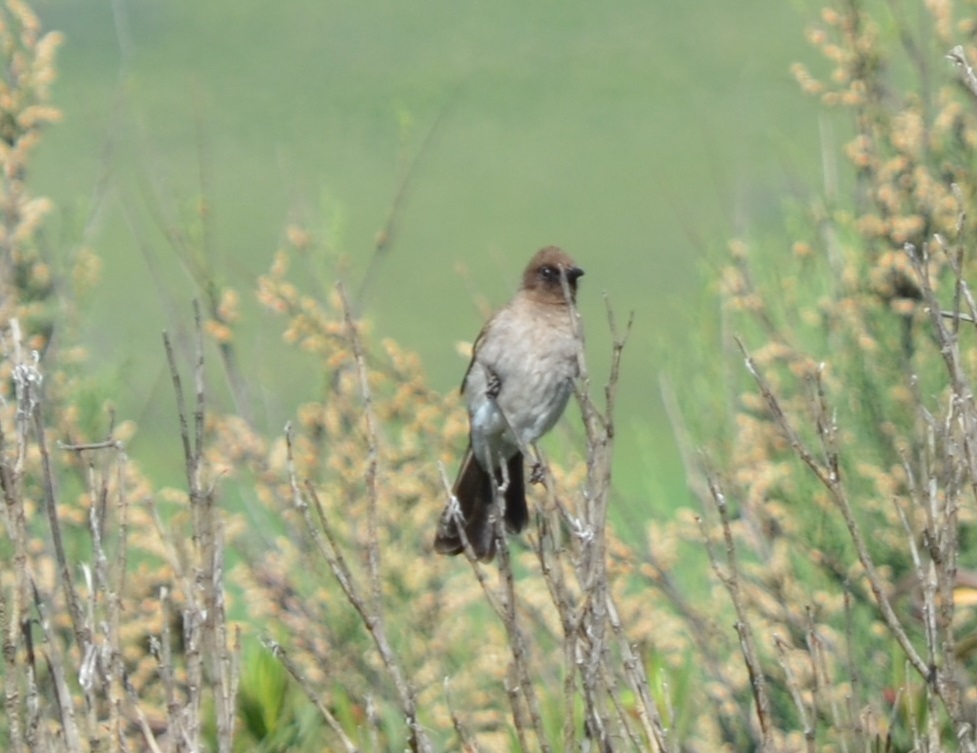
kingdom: Animalia
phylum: Chordata
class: Aves
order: Passeriformes
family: Pycnonotidae
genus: Pycnonotus
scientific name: Pycnonotus barbatus
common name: Common bulbul
